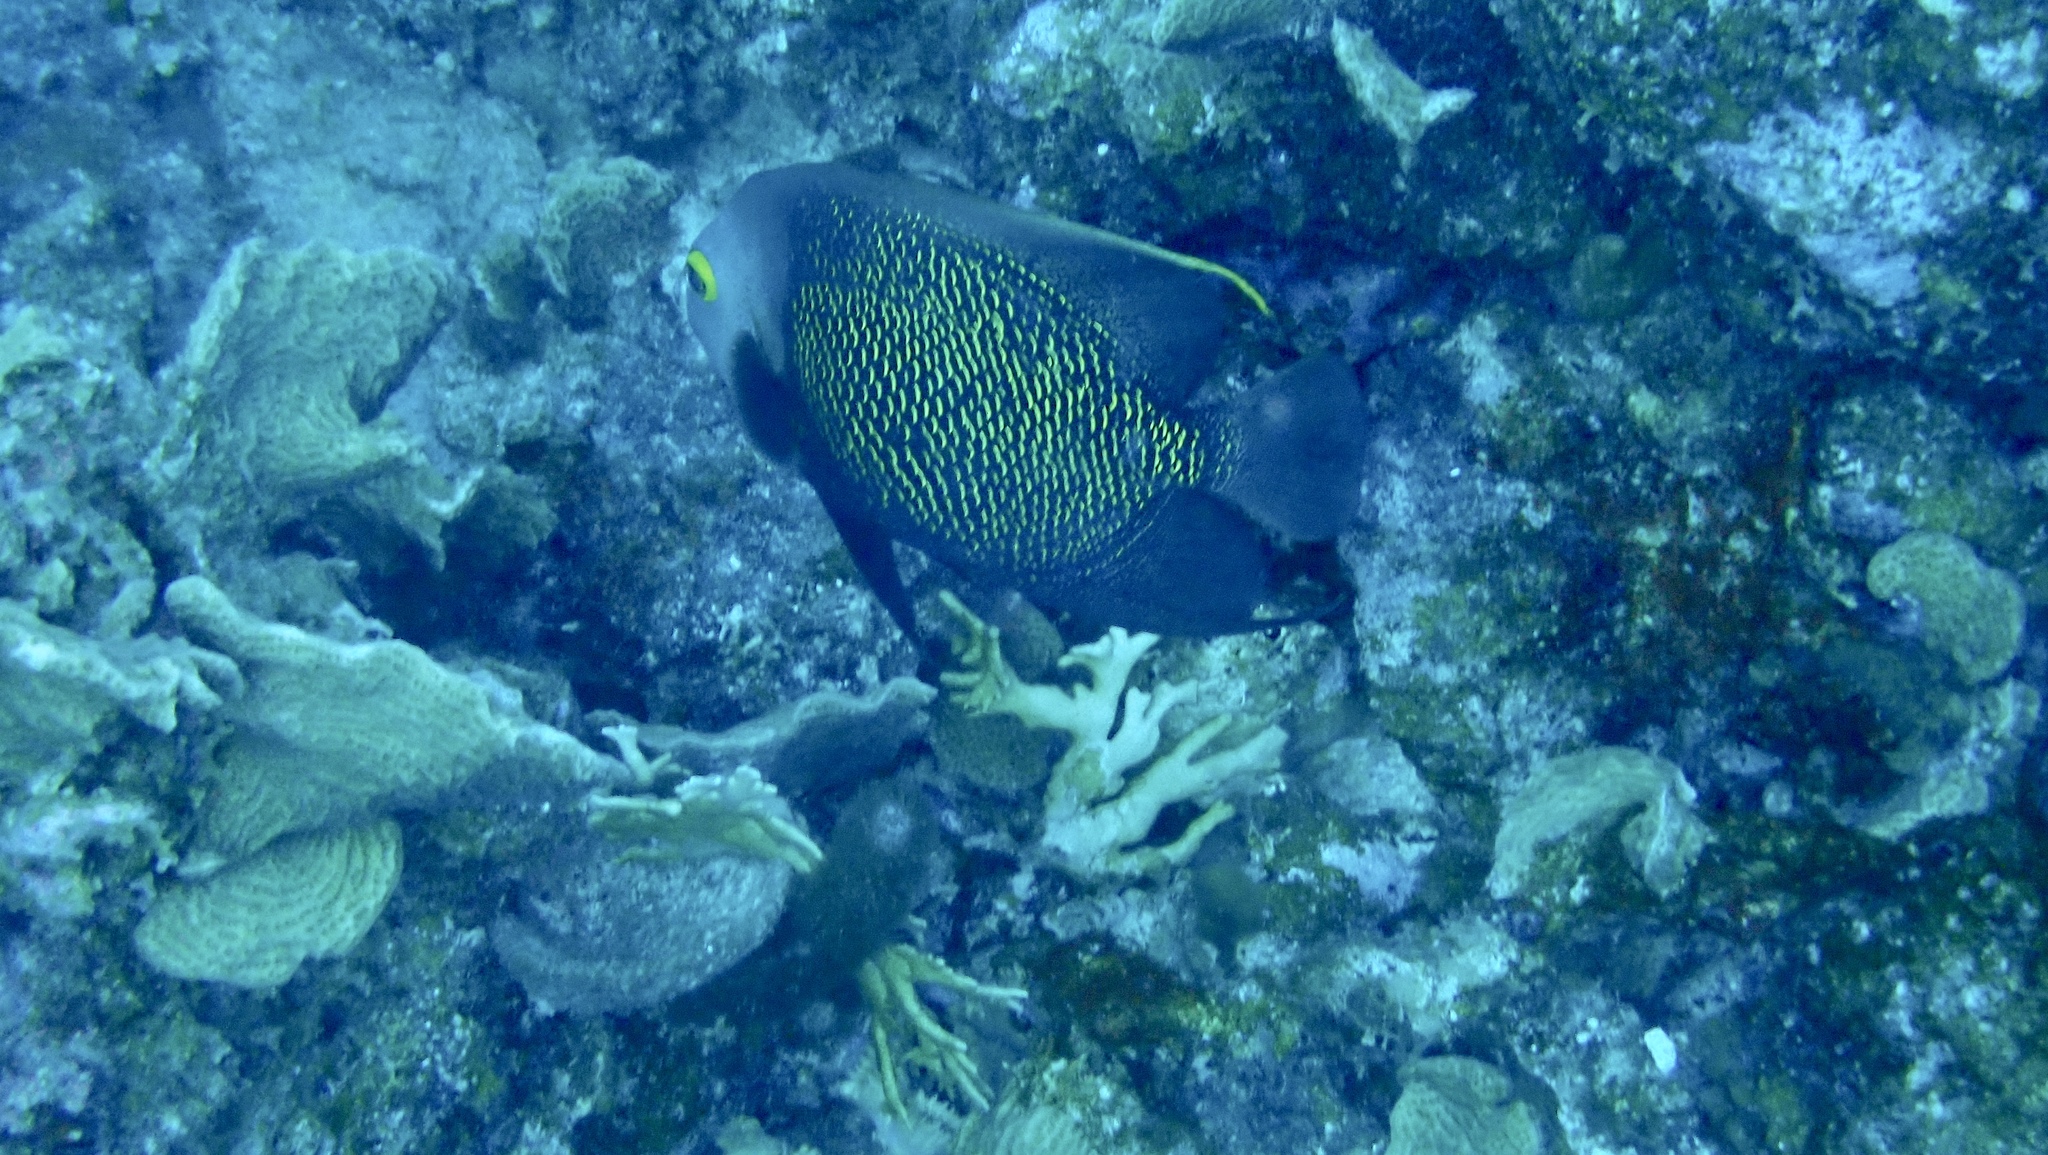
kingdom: Animalia
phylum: Chordata
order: Perciformes
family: Pomacanthidae
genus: Pomacanthus
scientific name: Pomacanthus paru
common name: French angelfish
